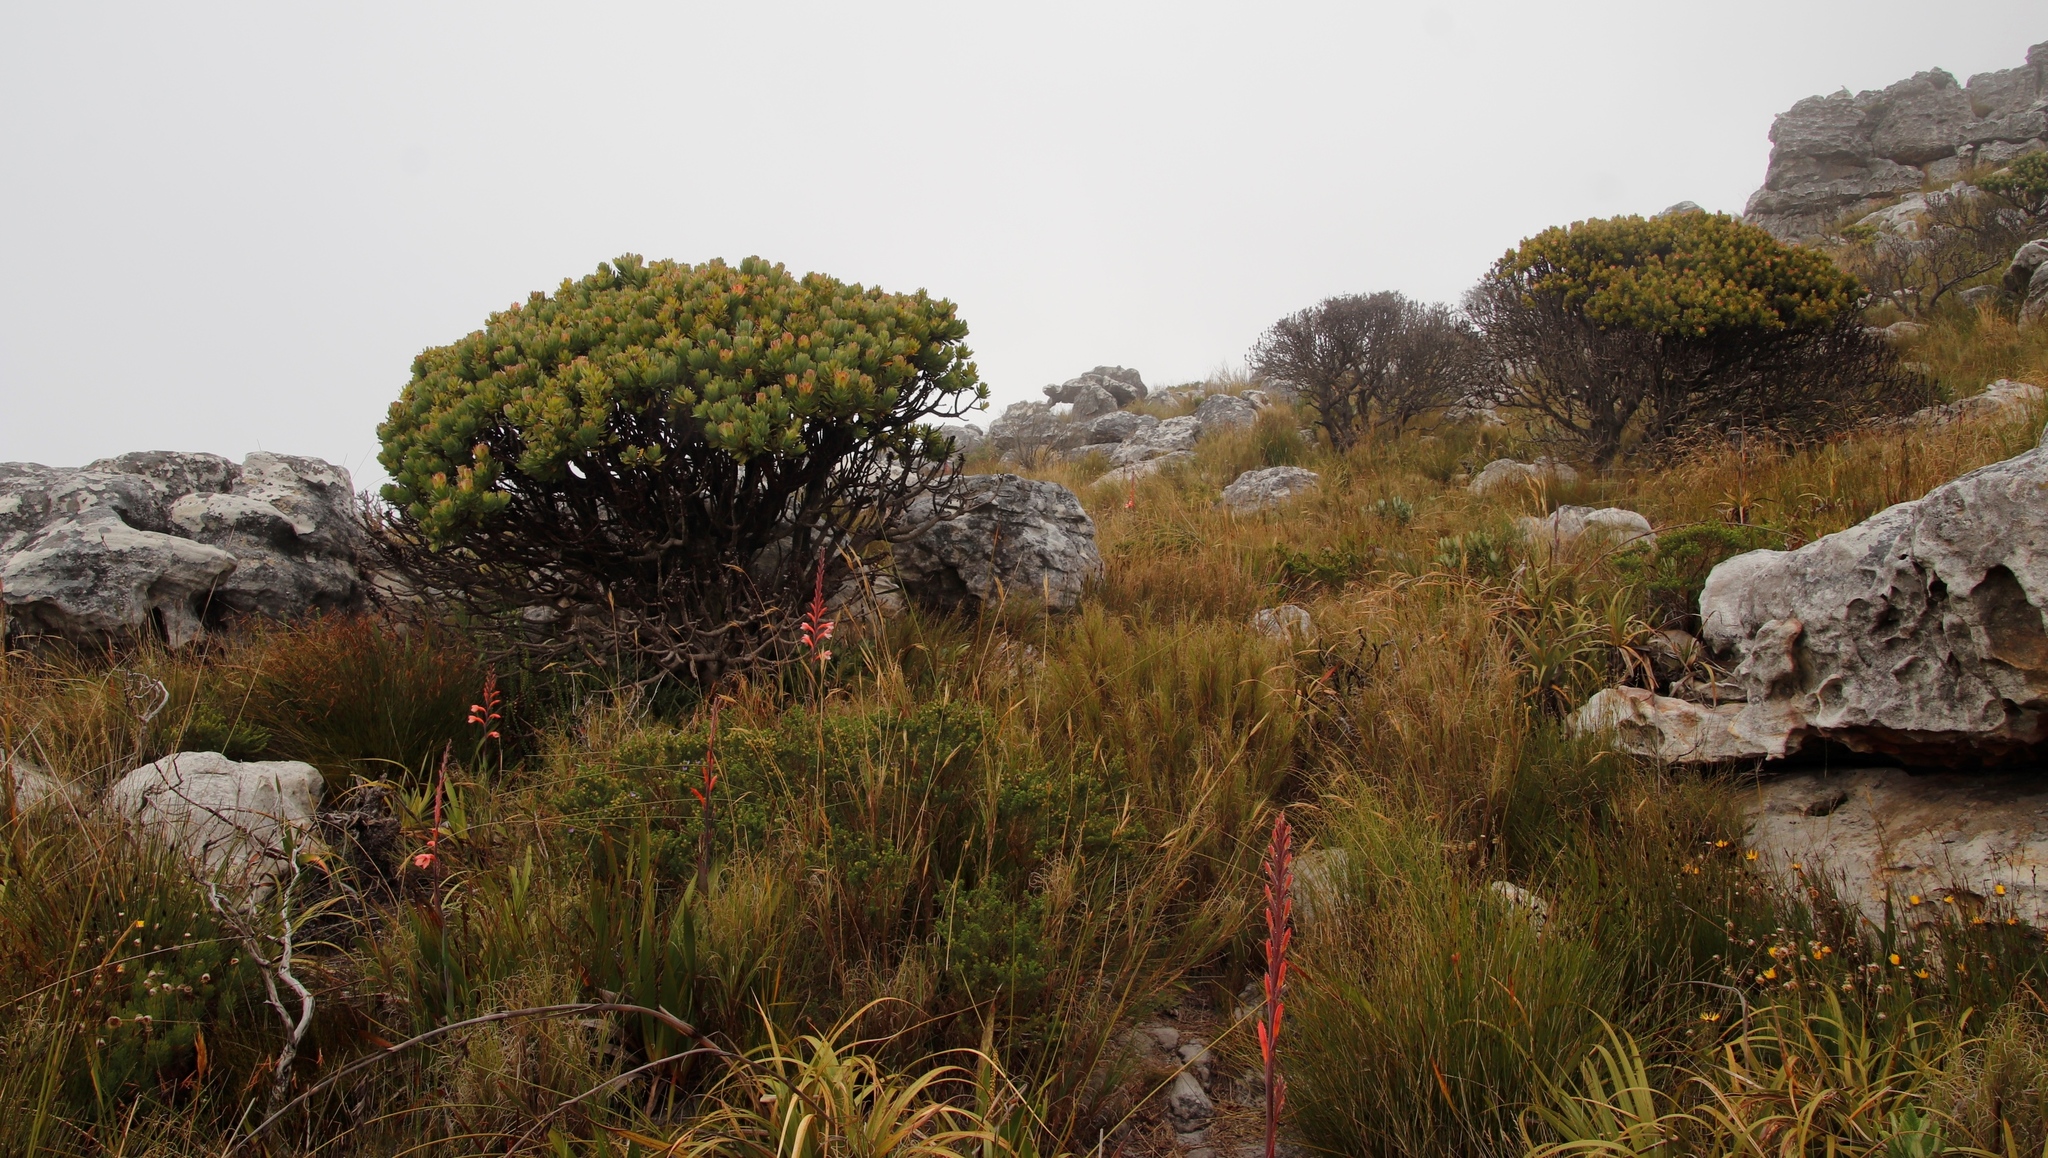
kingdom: Plantae
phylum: Tracheophyta
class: Magnoliopsida
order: Proteales
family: Proteaceae
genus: Mimetes
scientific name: Mimetes fimbriifolius
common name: Fringed bottlebrush
